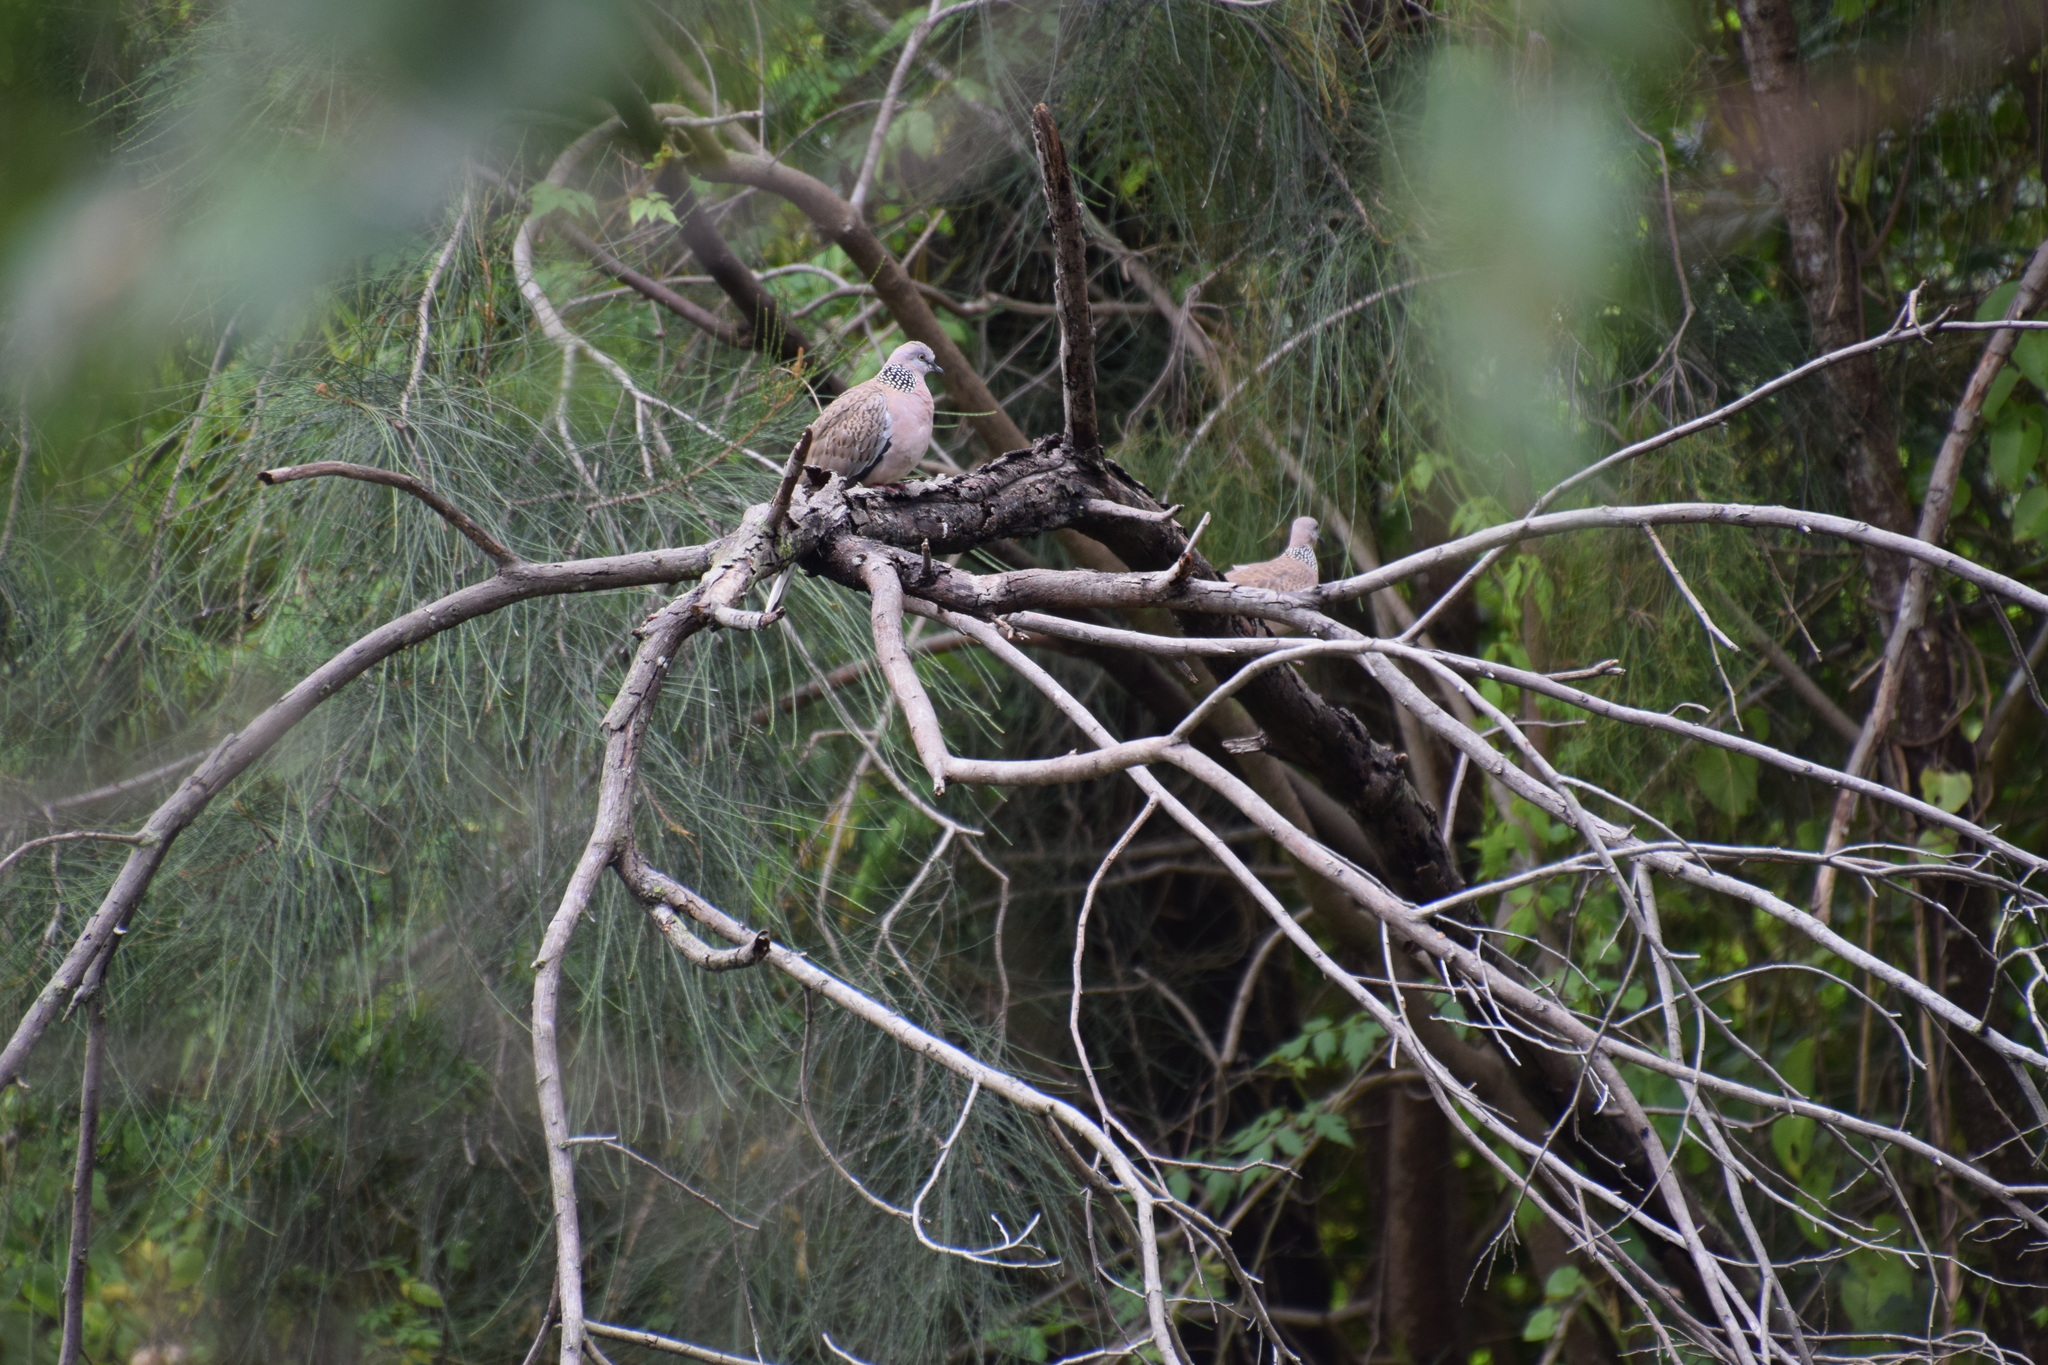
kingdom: Animalia
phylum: Chordata
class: Aves
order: Columbiformes
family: Columbidae
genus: Spilopelia
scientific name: Spilopelia chinensis
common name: Spotted dove
